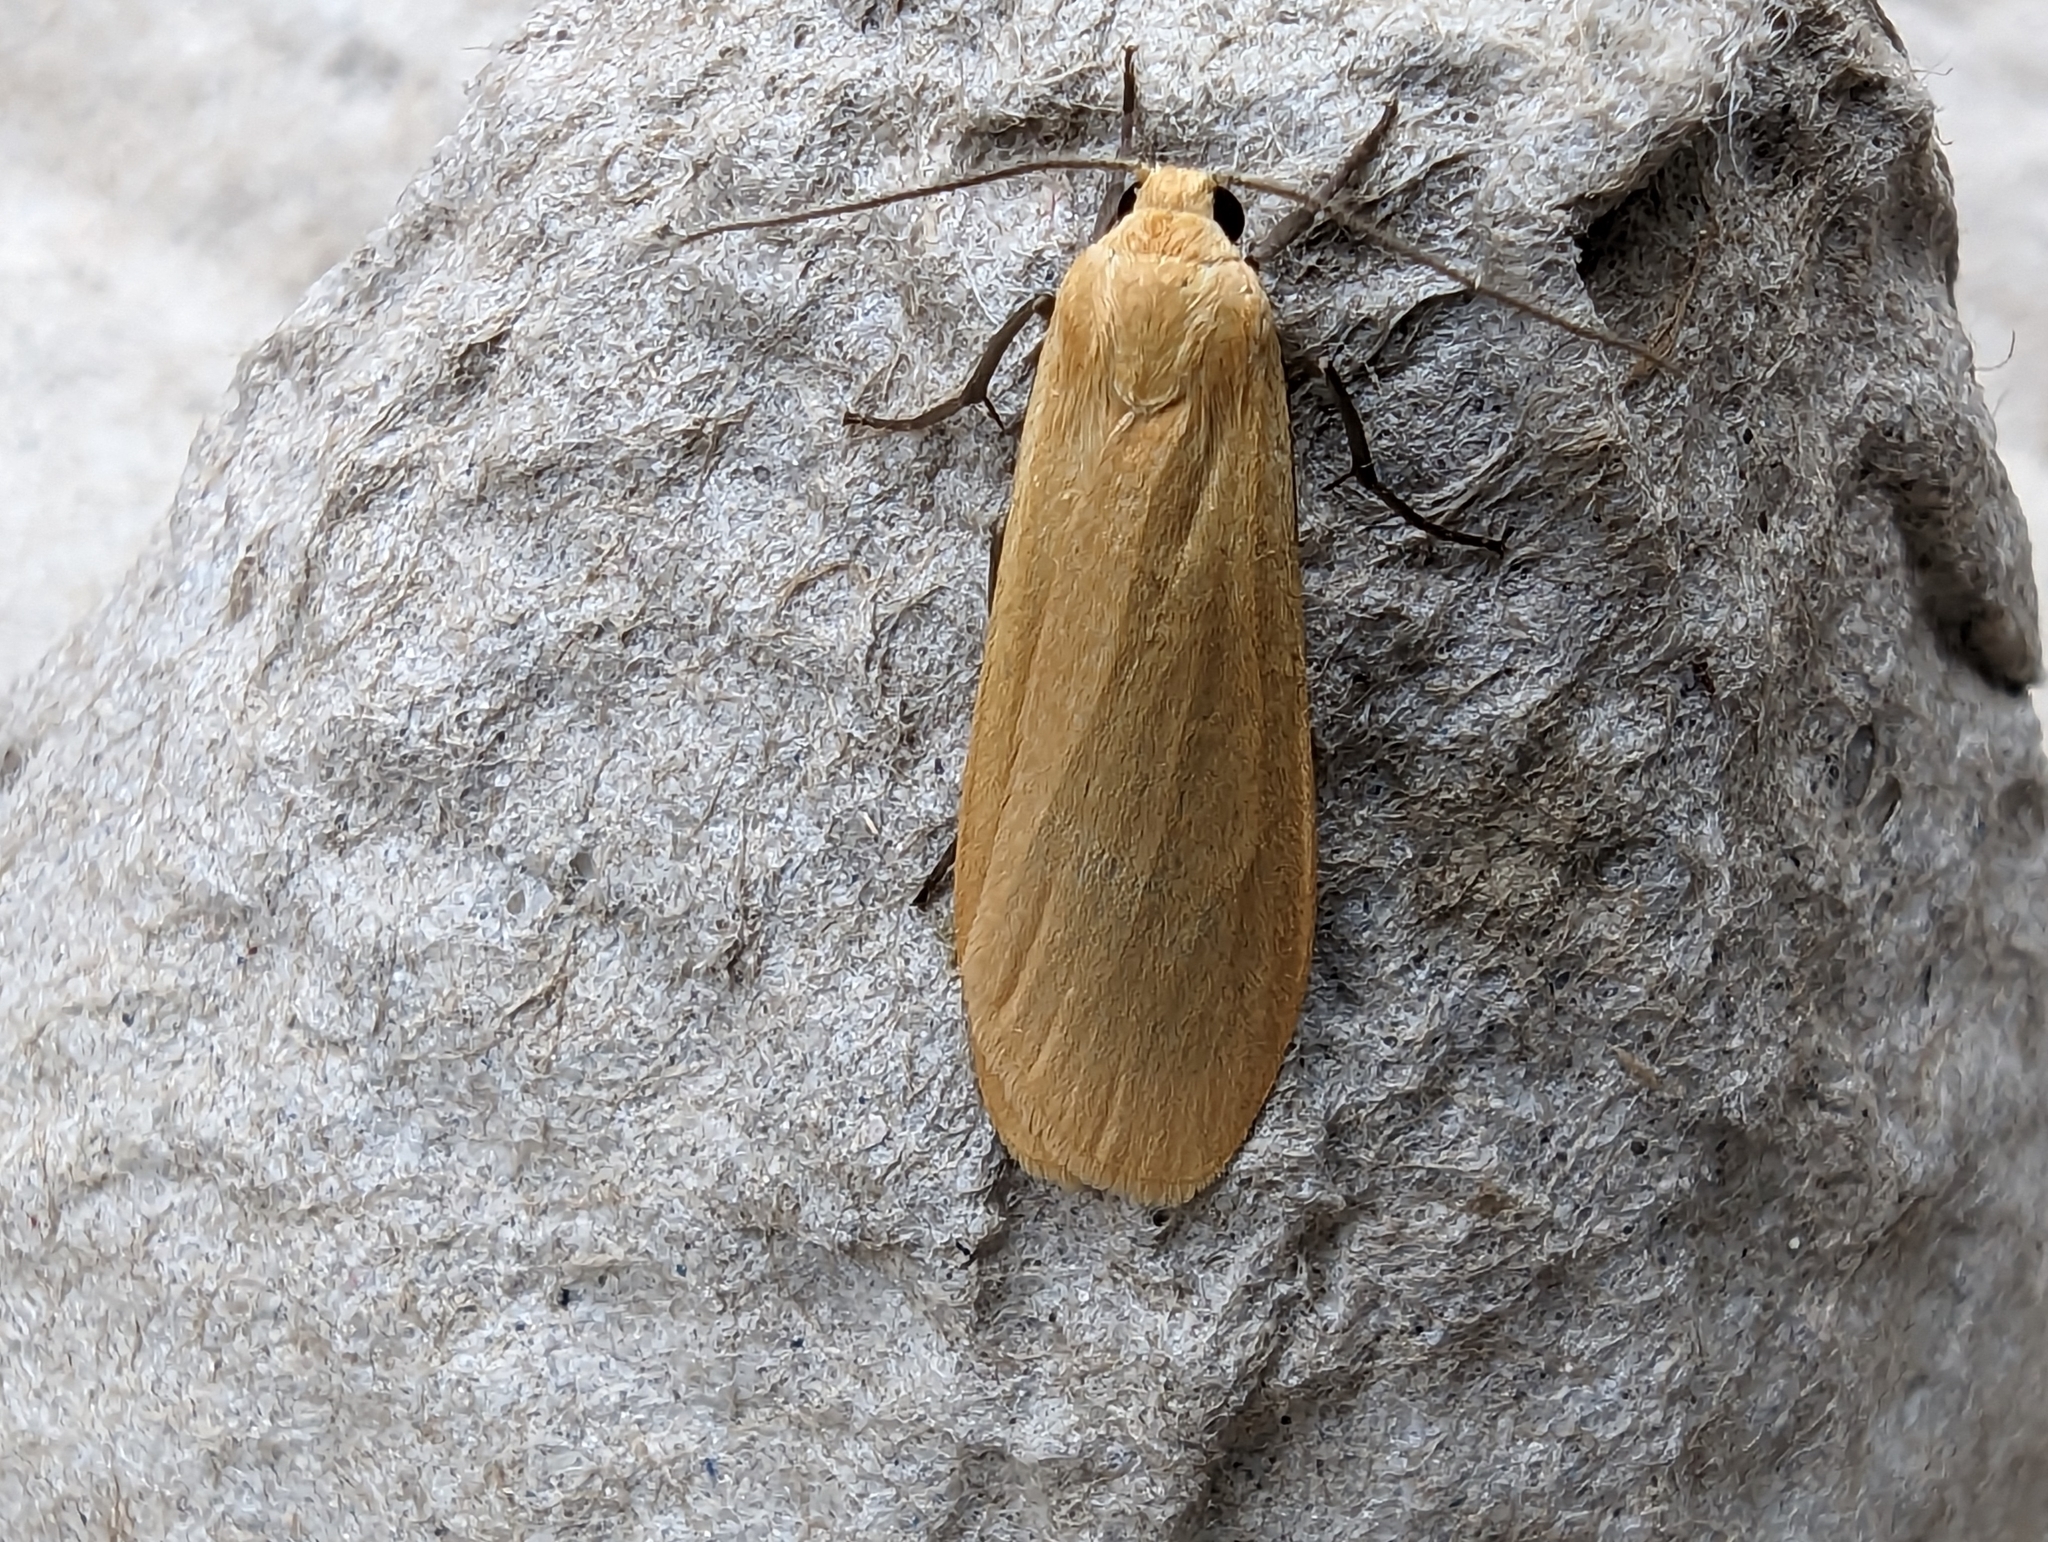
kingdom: Animalia
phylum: Arthropoda
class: Insecta
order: Lepidoptera
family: Erebidae
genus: Wittia
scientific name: Wittia sororcula
